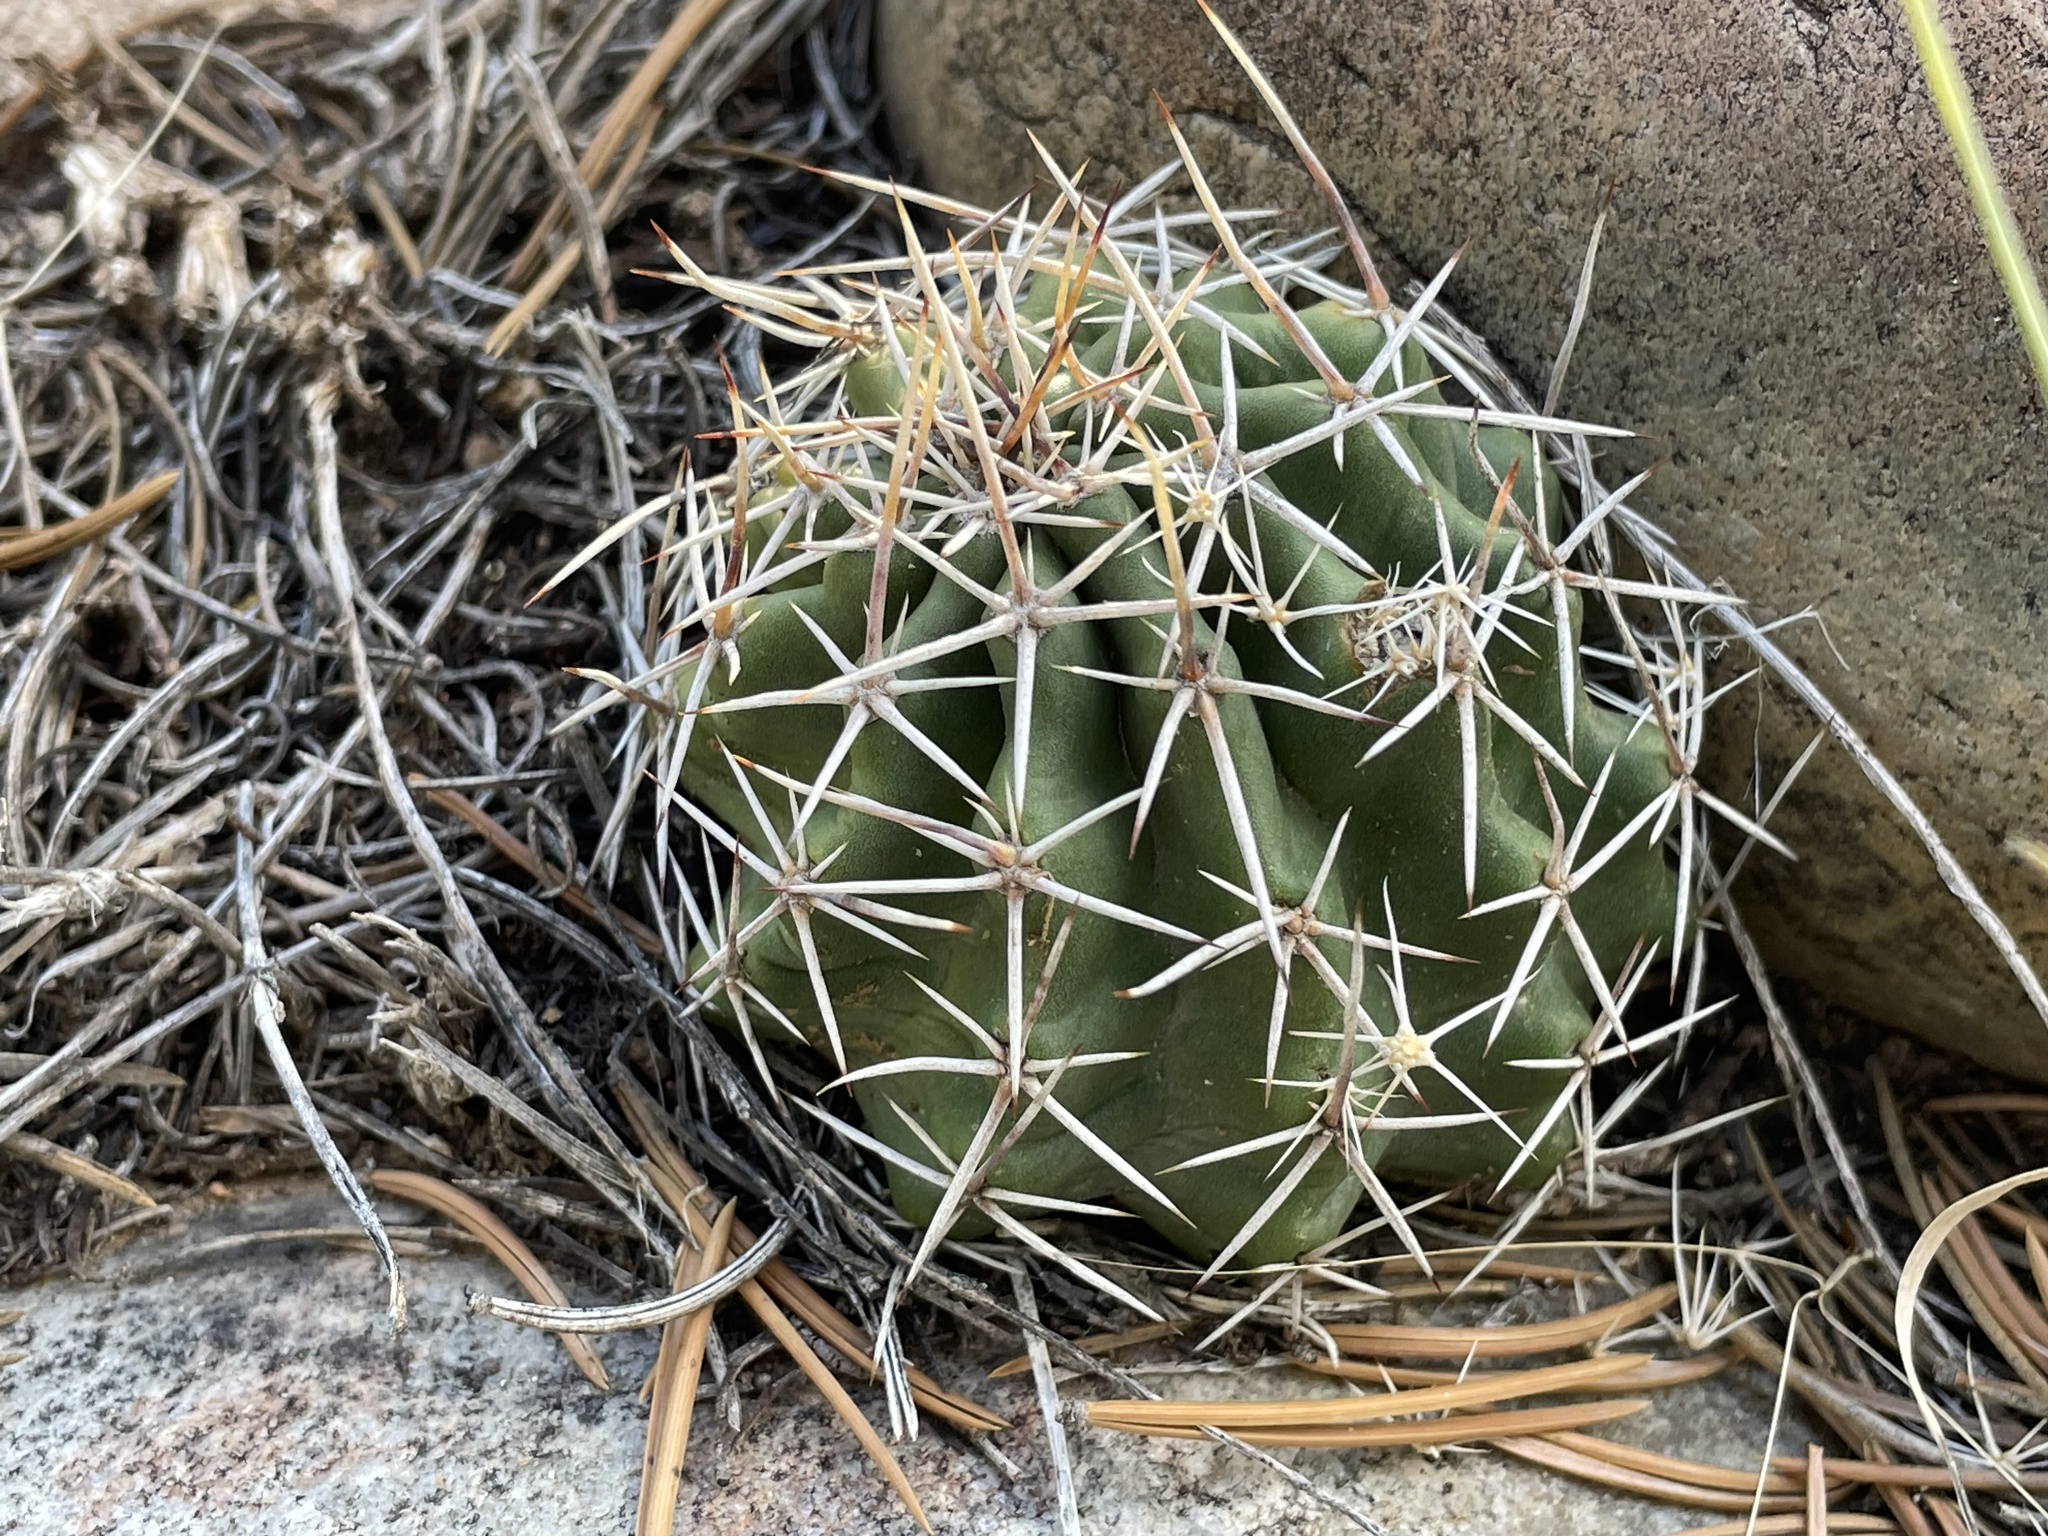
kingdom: Plantae
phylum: Tracheophyta
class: Magnoliopsida
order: Caryophyllales
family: Cactaceae
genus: Echinocereus
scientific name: Echinocereus fendleri
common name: Fendler's hedgehog cactus
